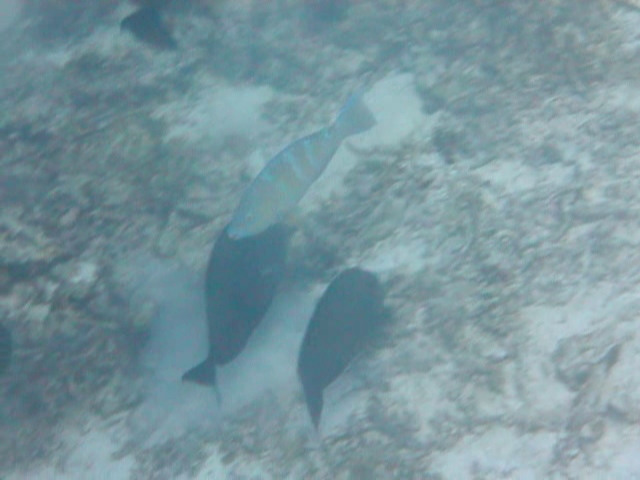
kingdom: Animalia
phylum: Chordata
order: Perciformes
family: Scaridae
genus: Scarus
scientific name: Scarus ghobban
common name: Blue-barred parrotfish
